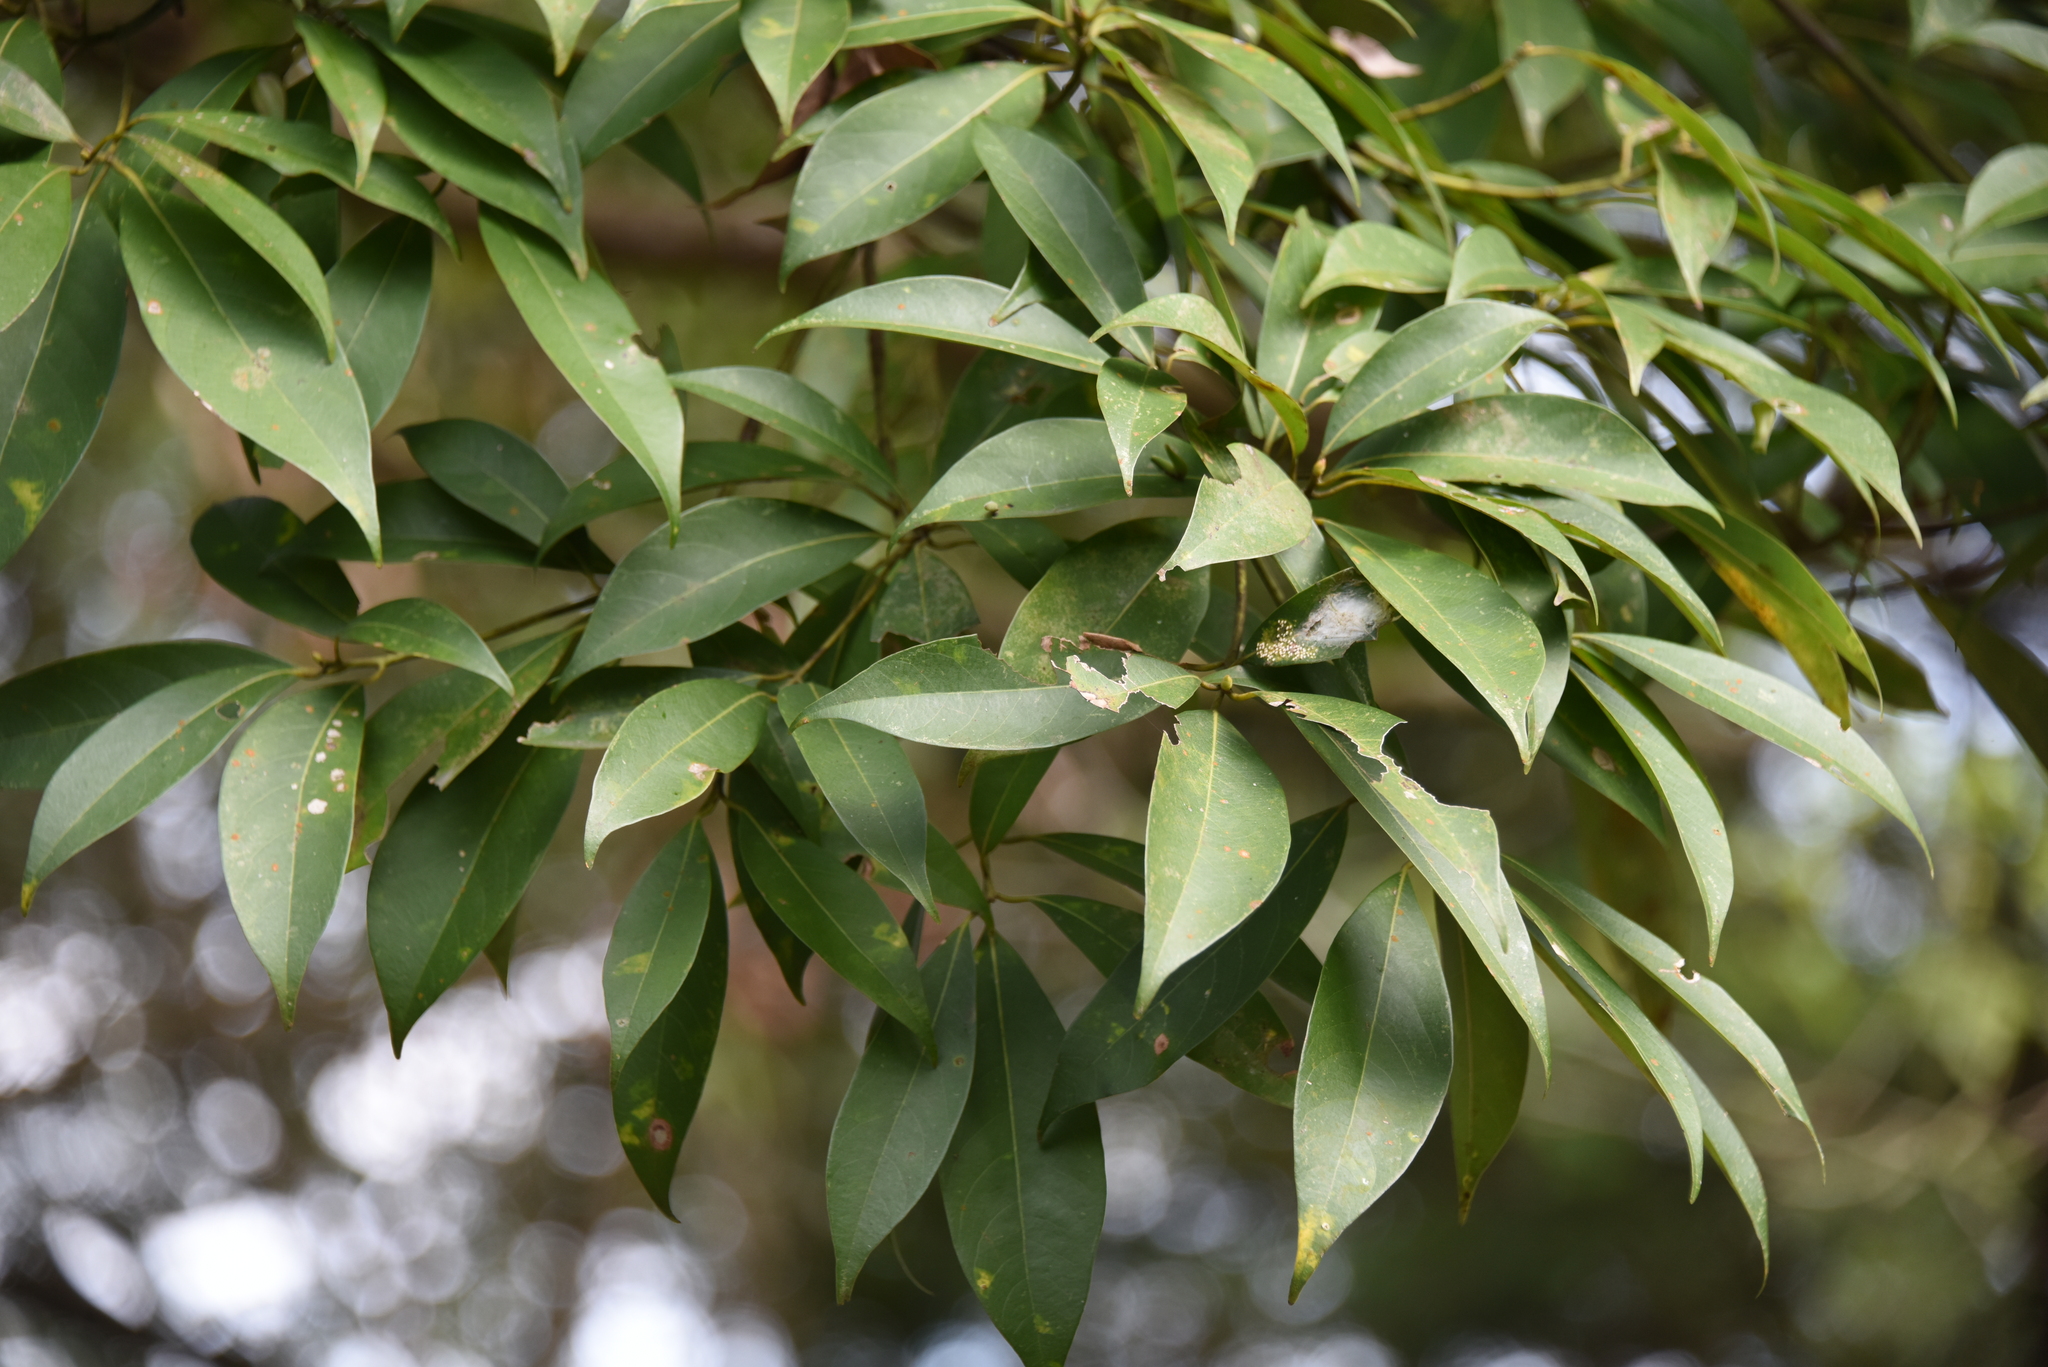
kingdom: Plantae
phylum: Tracheophyta
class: Magnoliopsida
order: Laurales
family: Lauraceae
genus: Machilus
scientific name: Machilus zuihoensis
